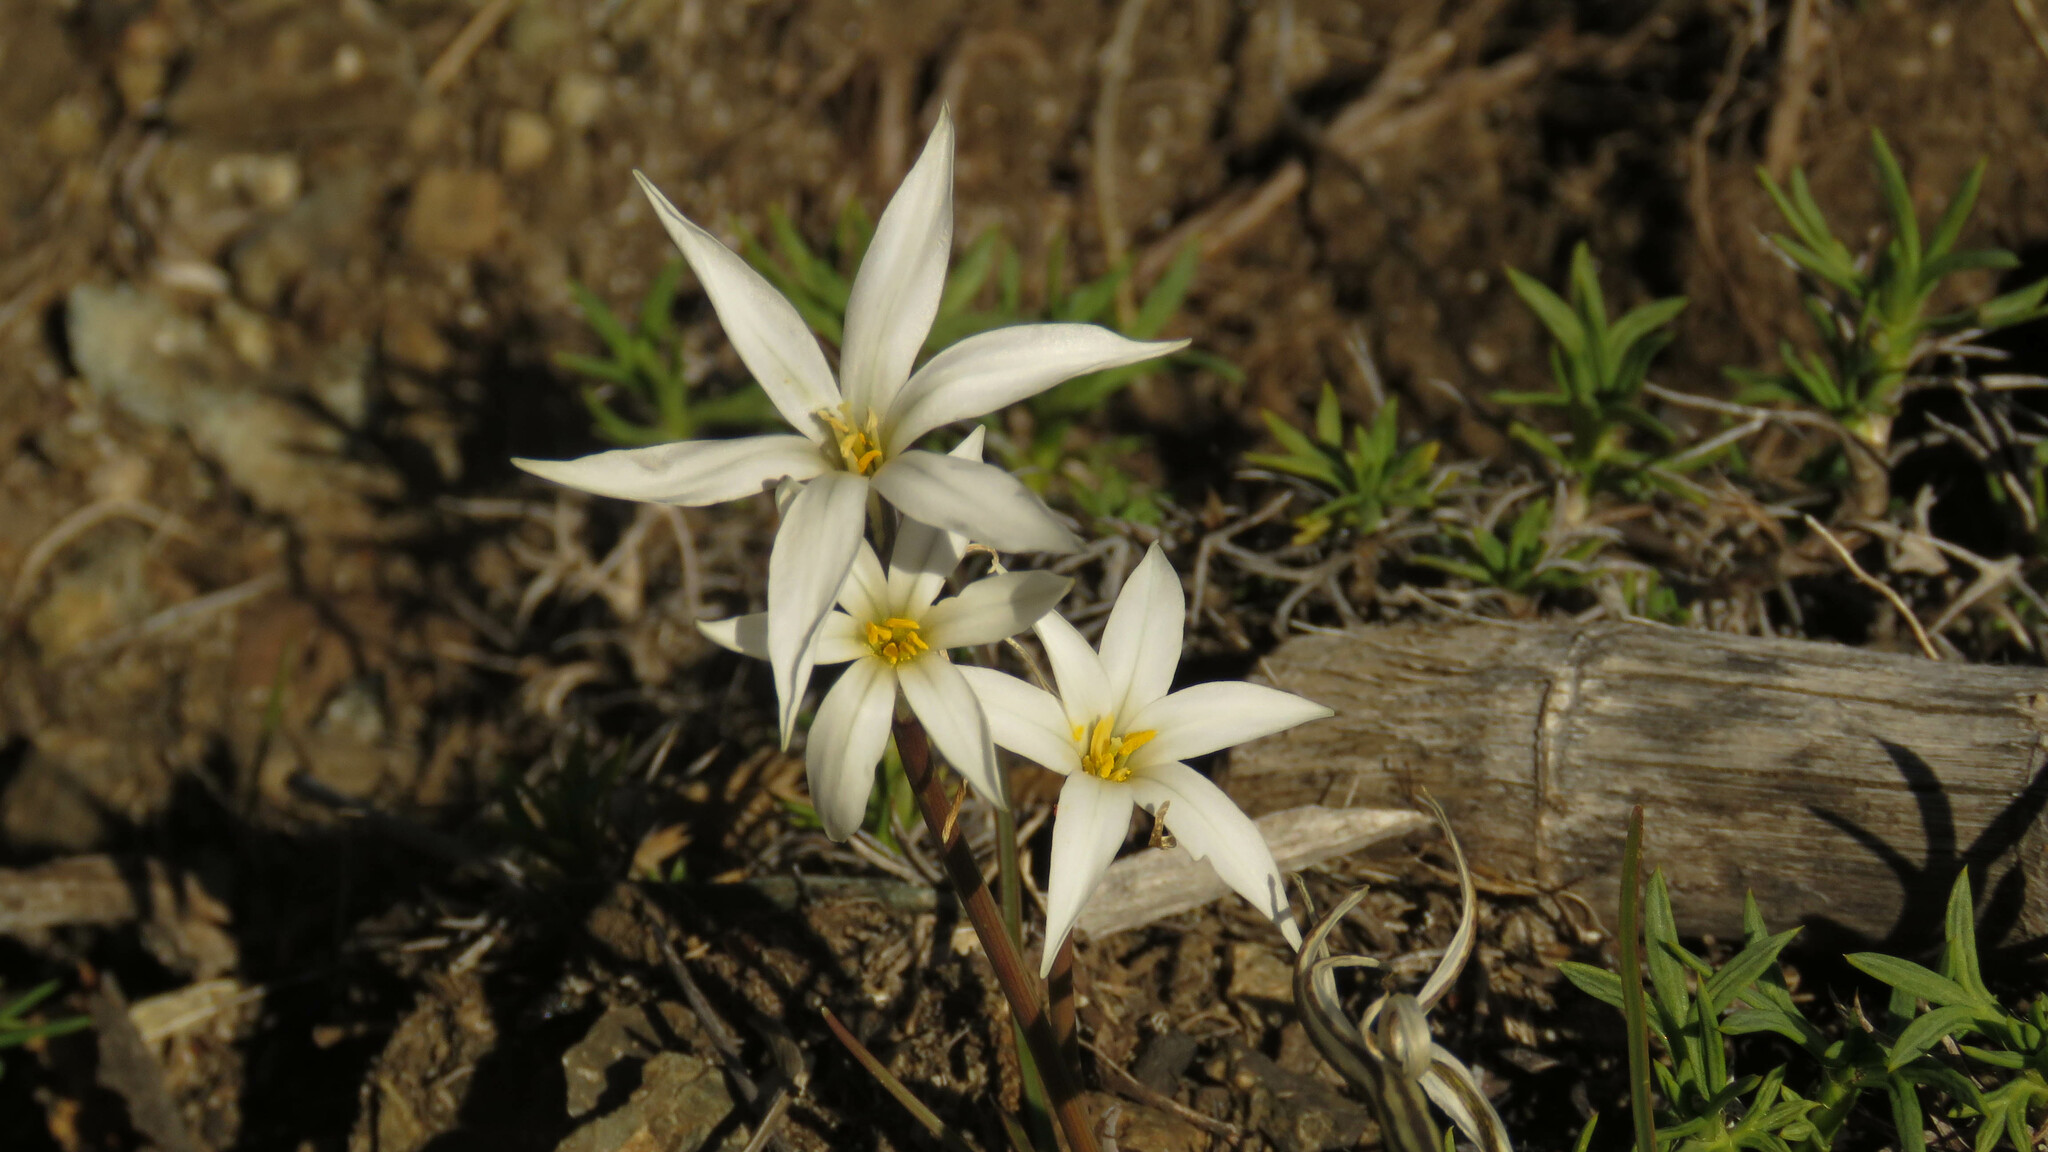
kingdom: Plantae
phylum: Tracheophyta
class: Liliopsida
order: Asparagales
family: Amaryllidaceae
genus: Tristagma
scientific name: Tristagma patagonicum
